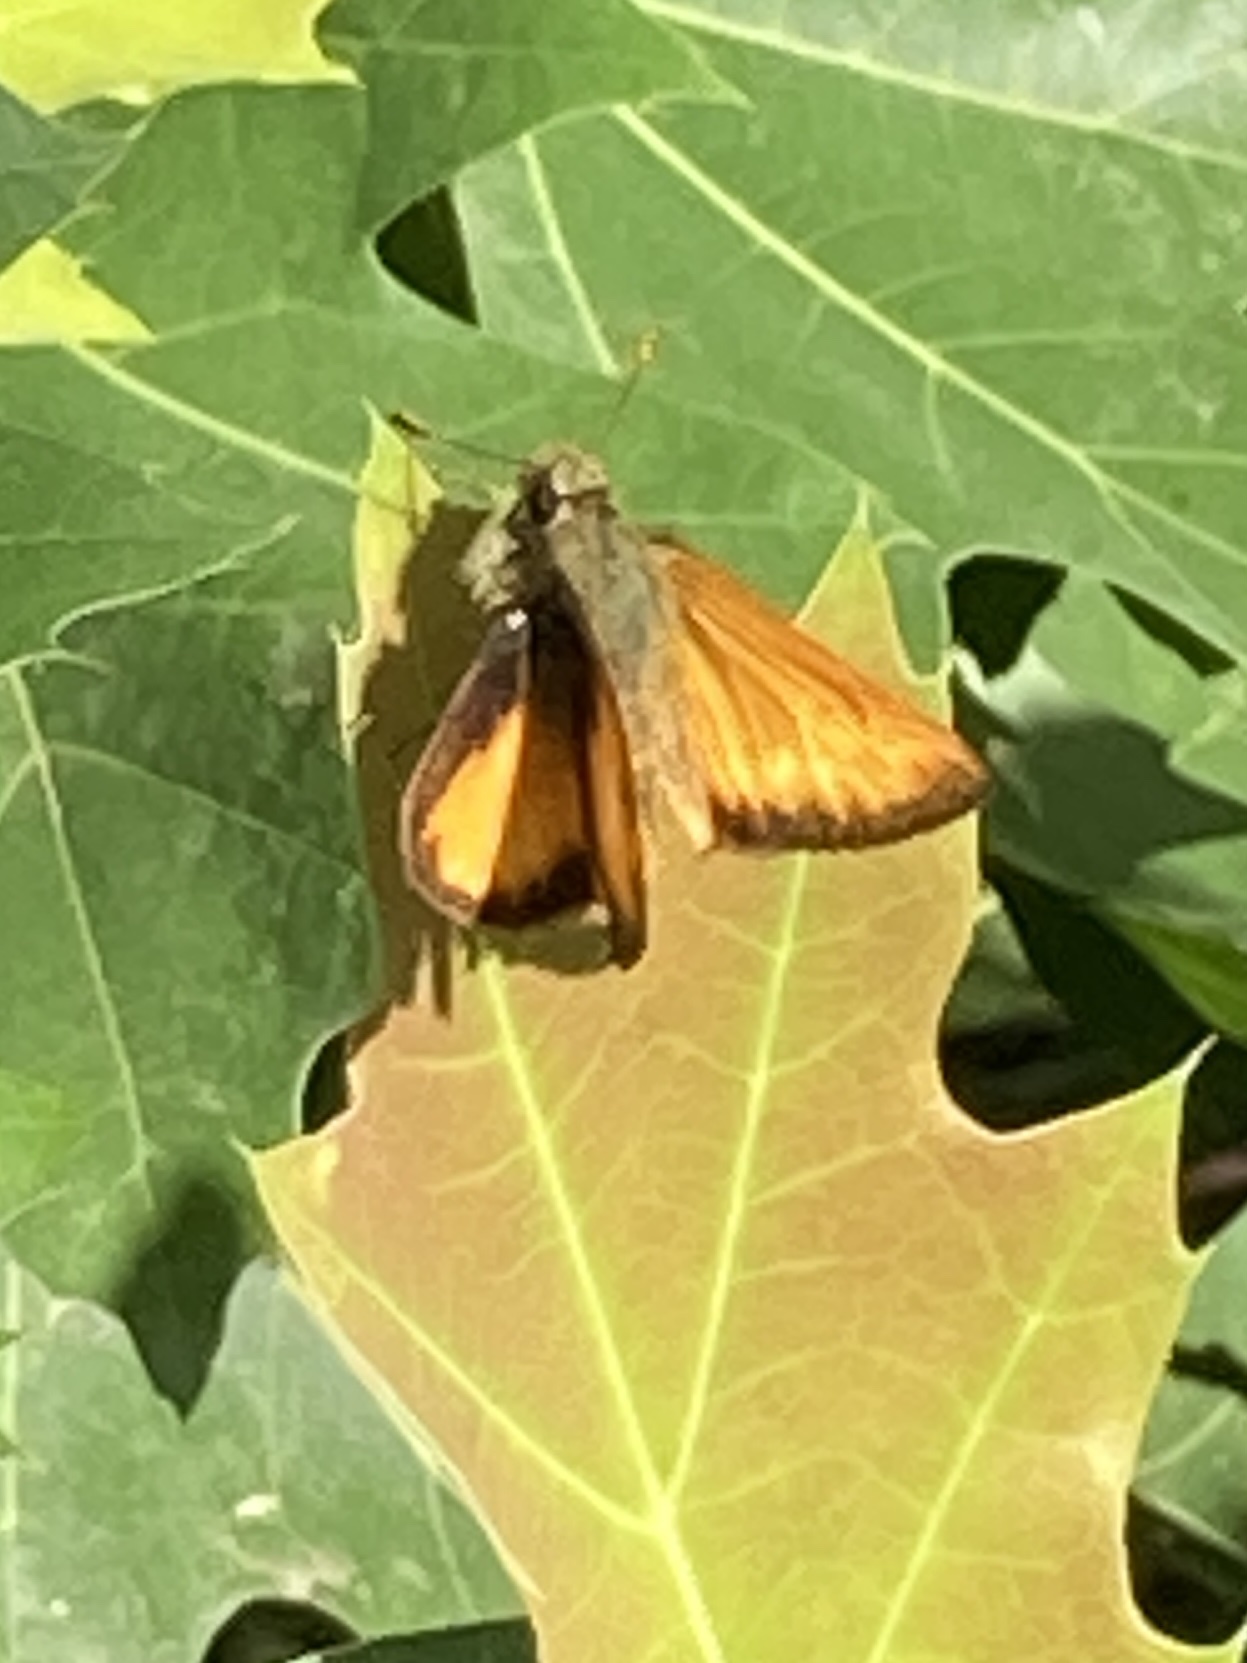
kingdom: Animalia
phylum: Arthropoda
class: Insecta
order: Lepidoptera
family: Hesperiidae
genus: Lon
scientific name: Lon taxiles
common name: Taxiles skipper
